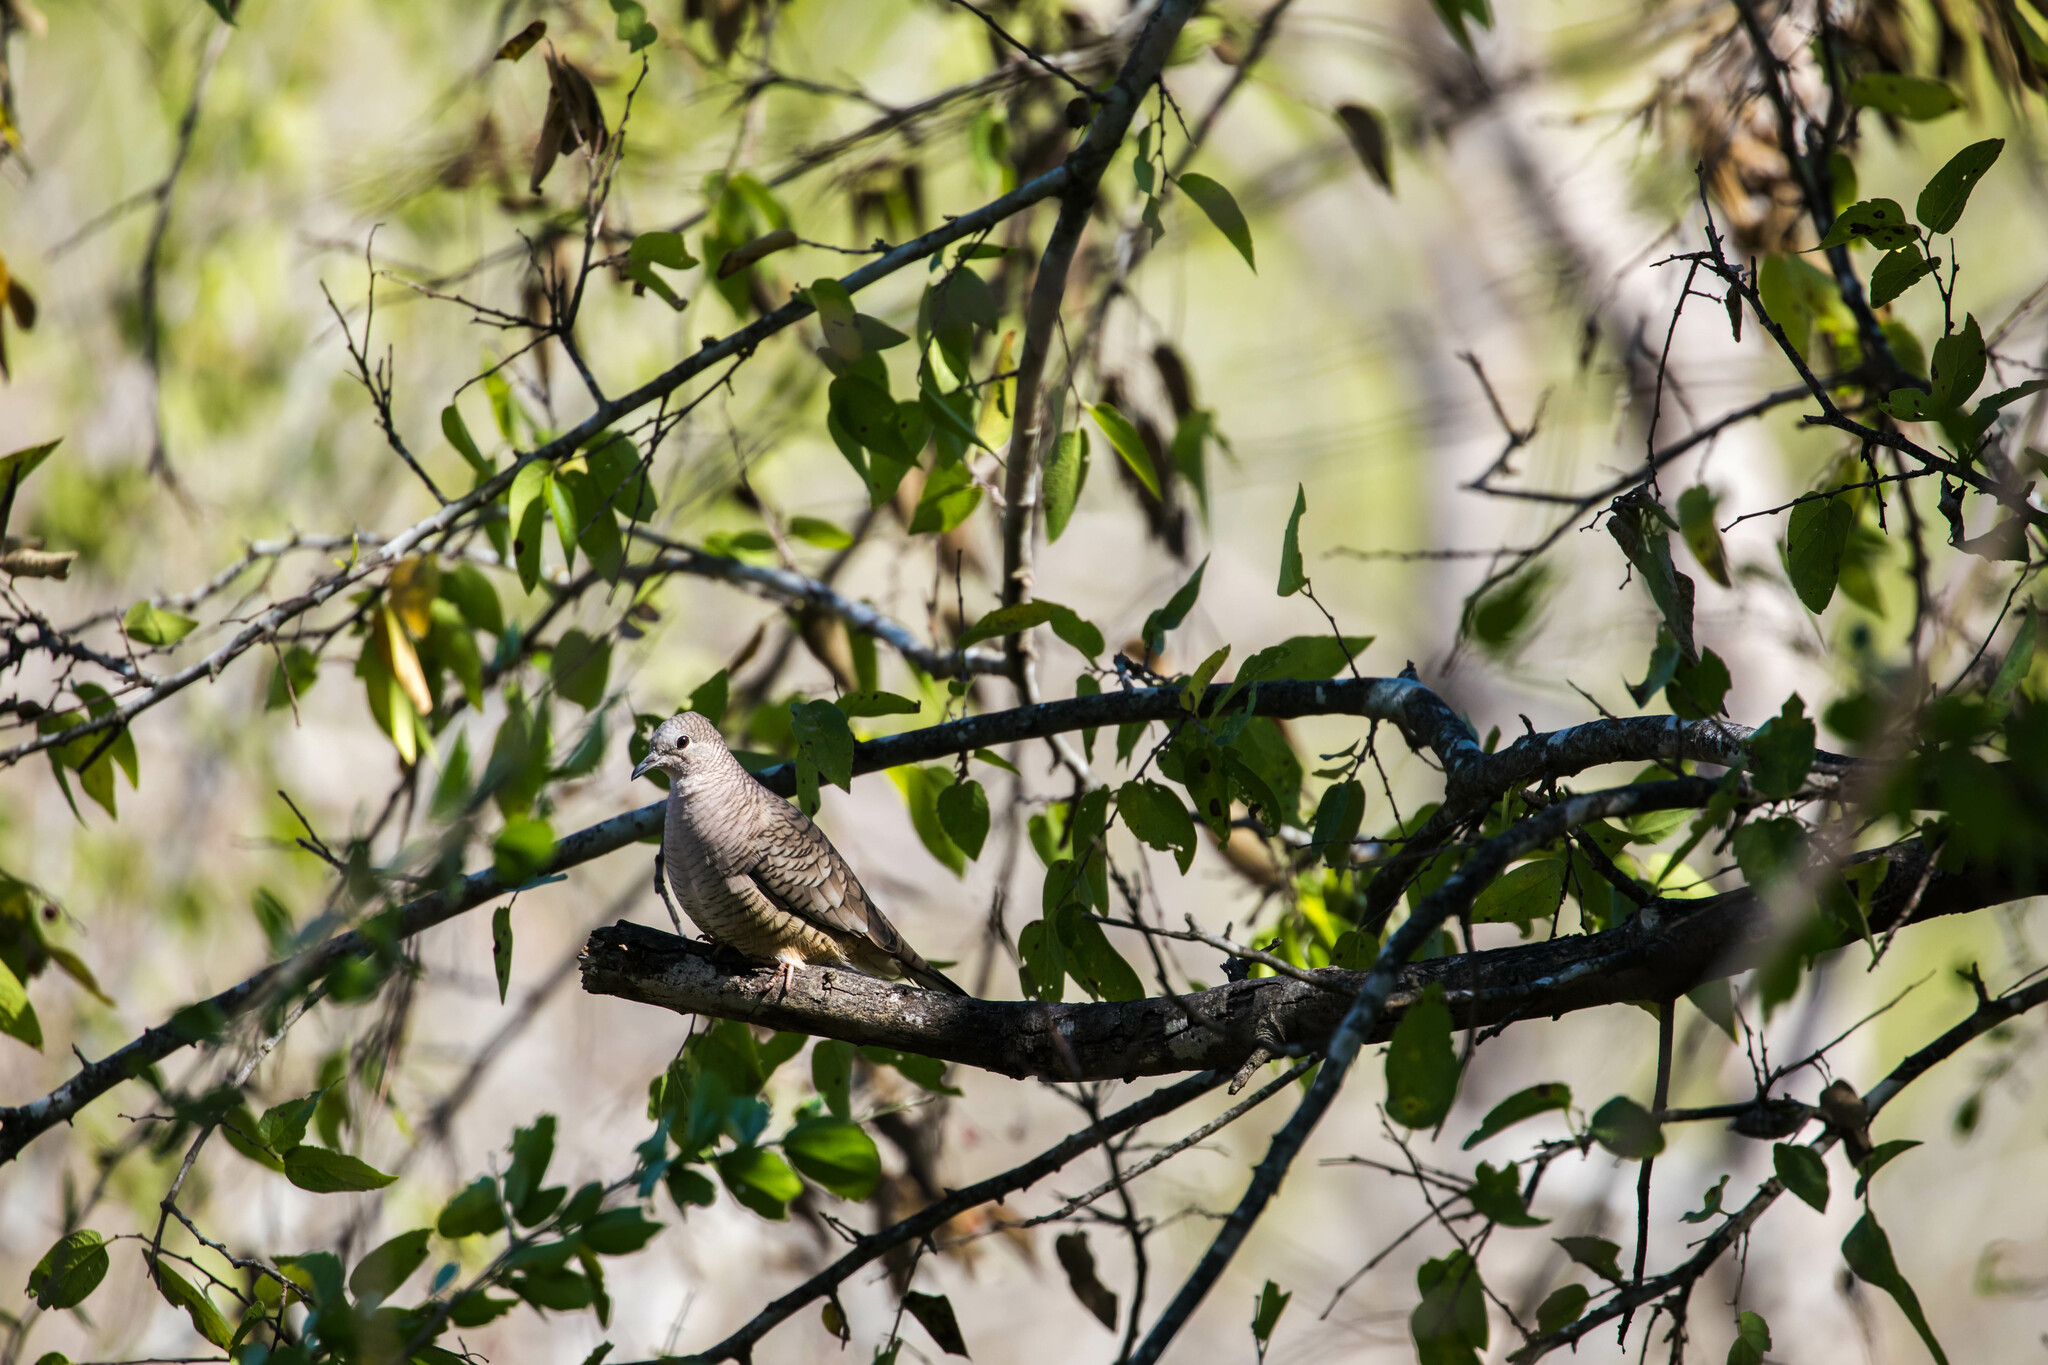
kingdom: Animalia
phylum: Chordata
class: Aves
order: Columbiformes
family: Columbidae
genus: Columbina
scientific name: Columbina inca
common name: Inca dove
